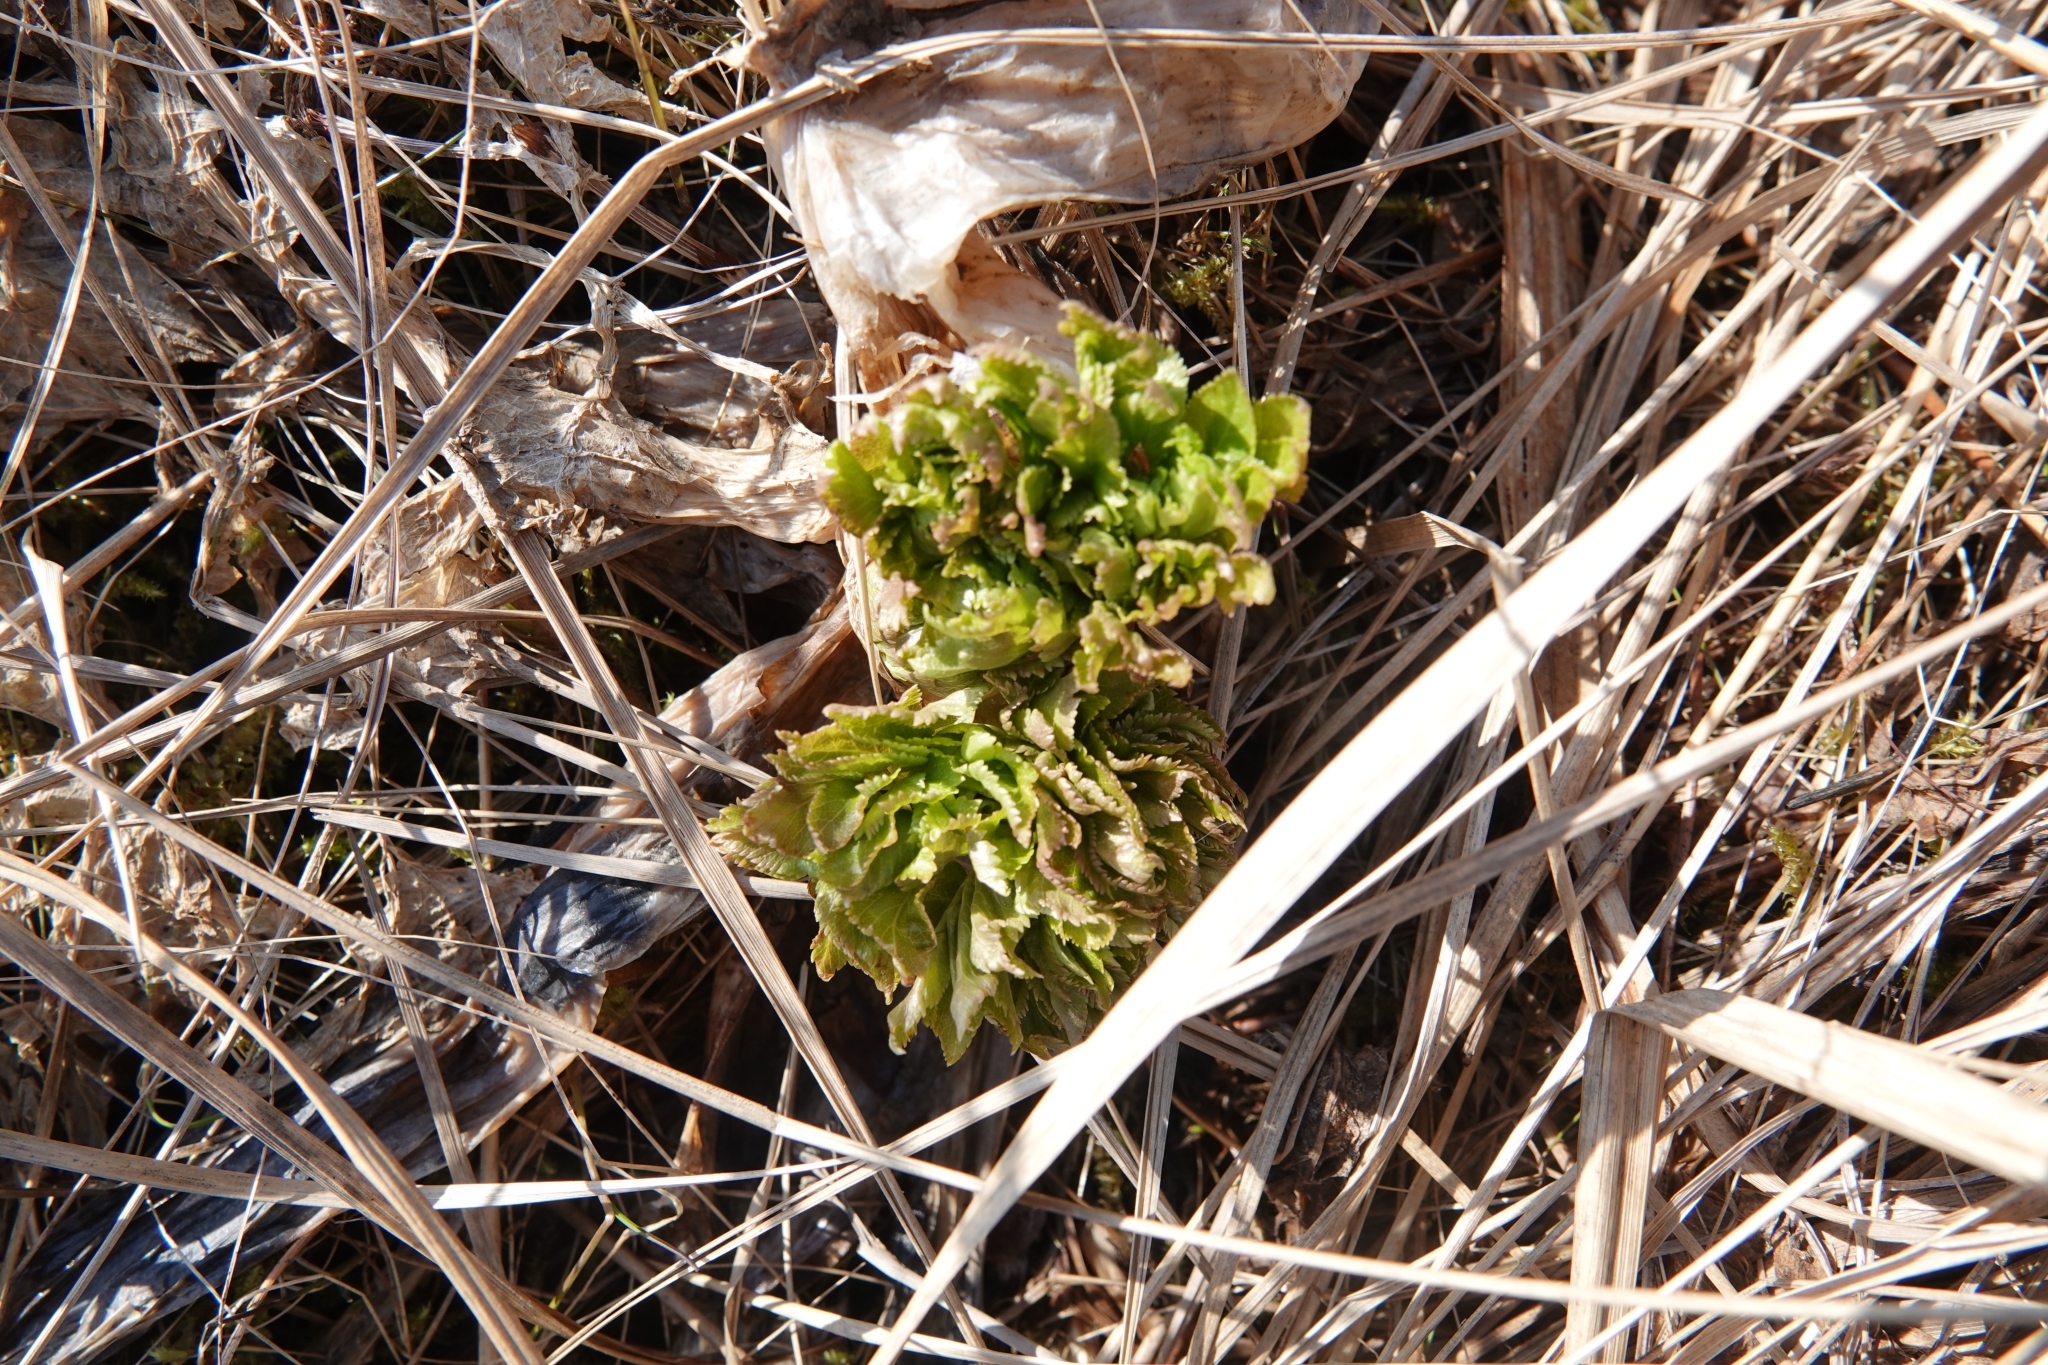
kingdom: Plantae
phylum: Tracheophyta
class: Magnoliopsida
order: Apiales
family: Apiaceae
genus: Angelica
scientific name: Angelica gmelinii
